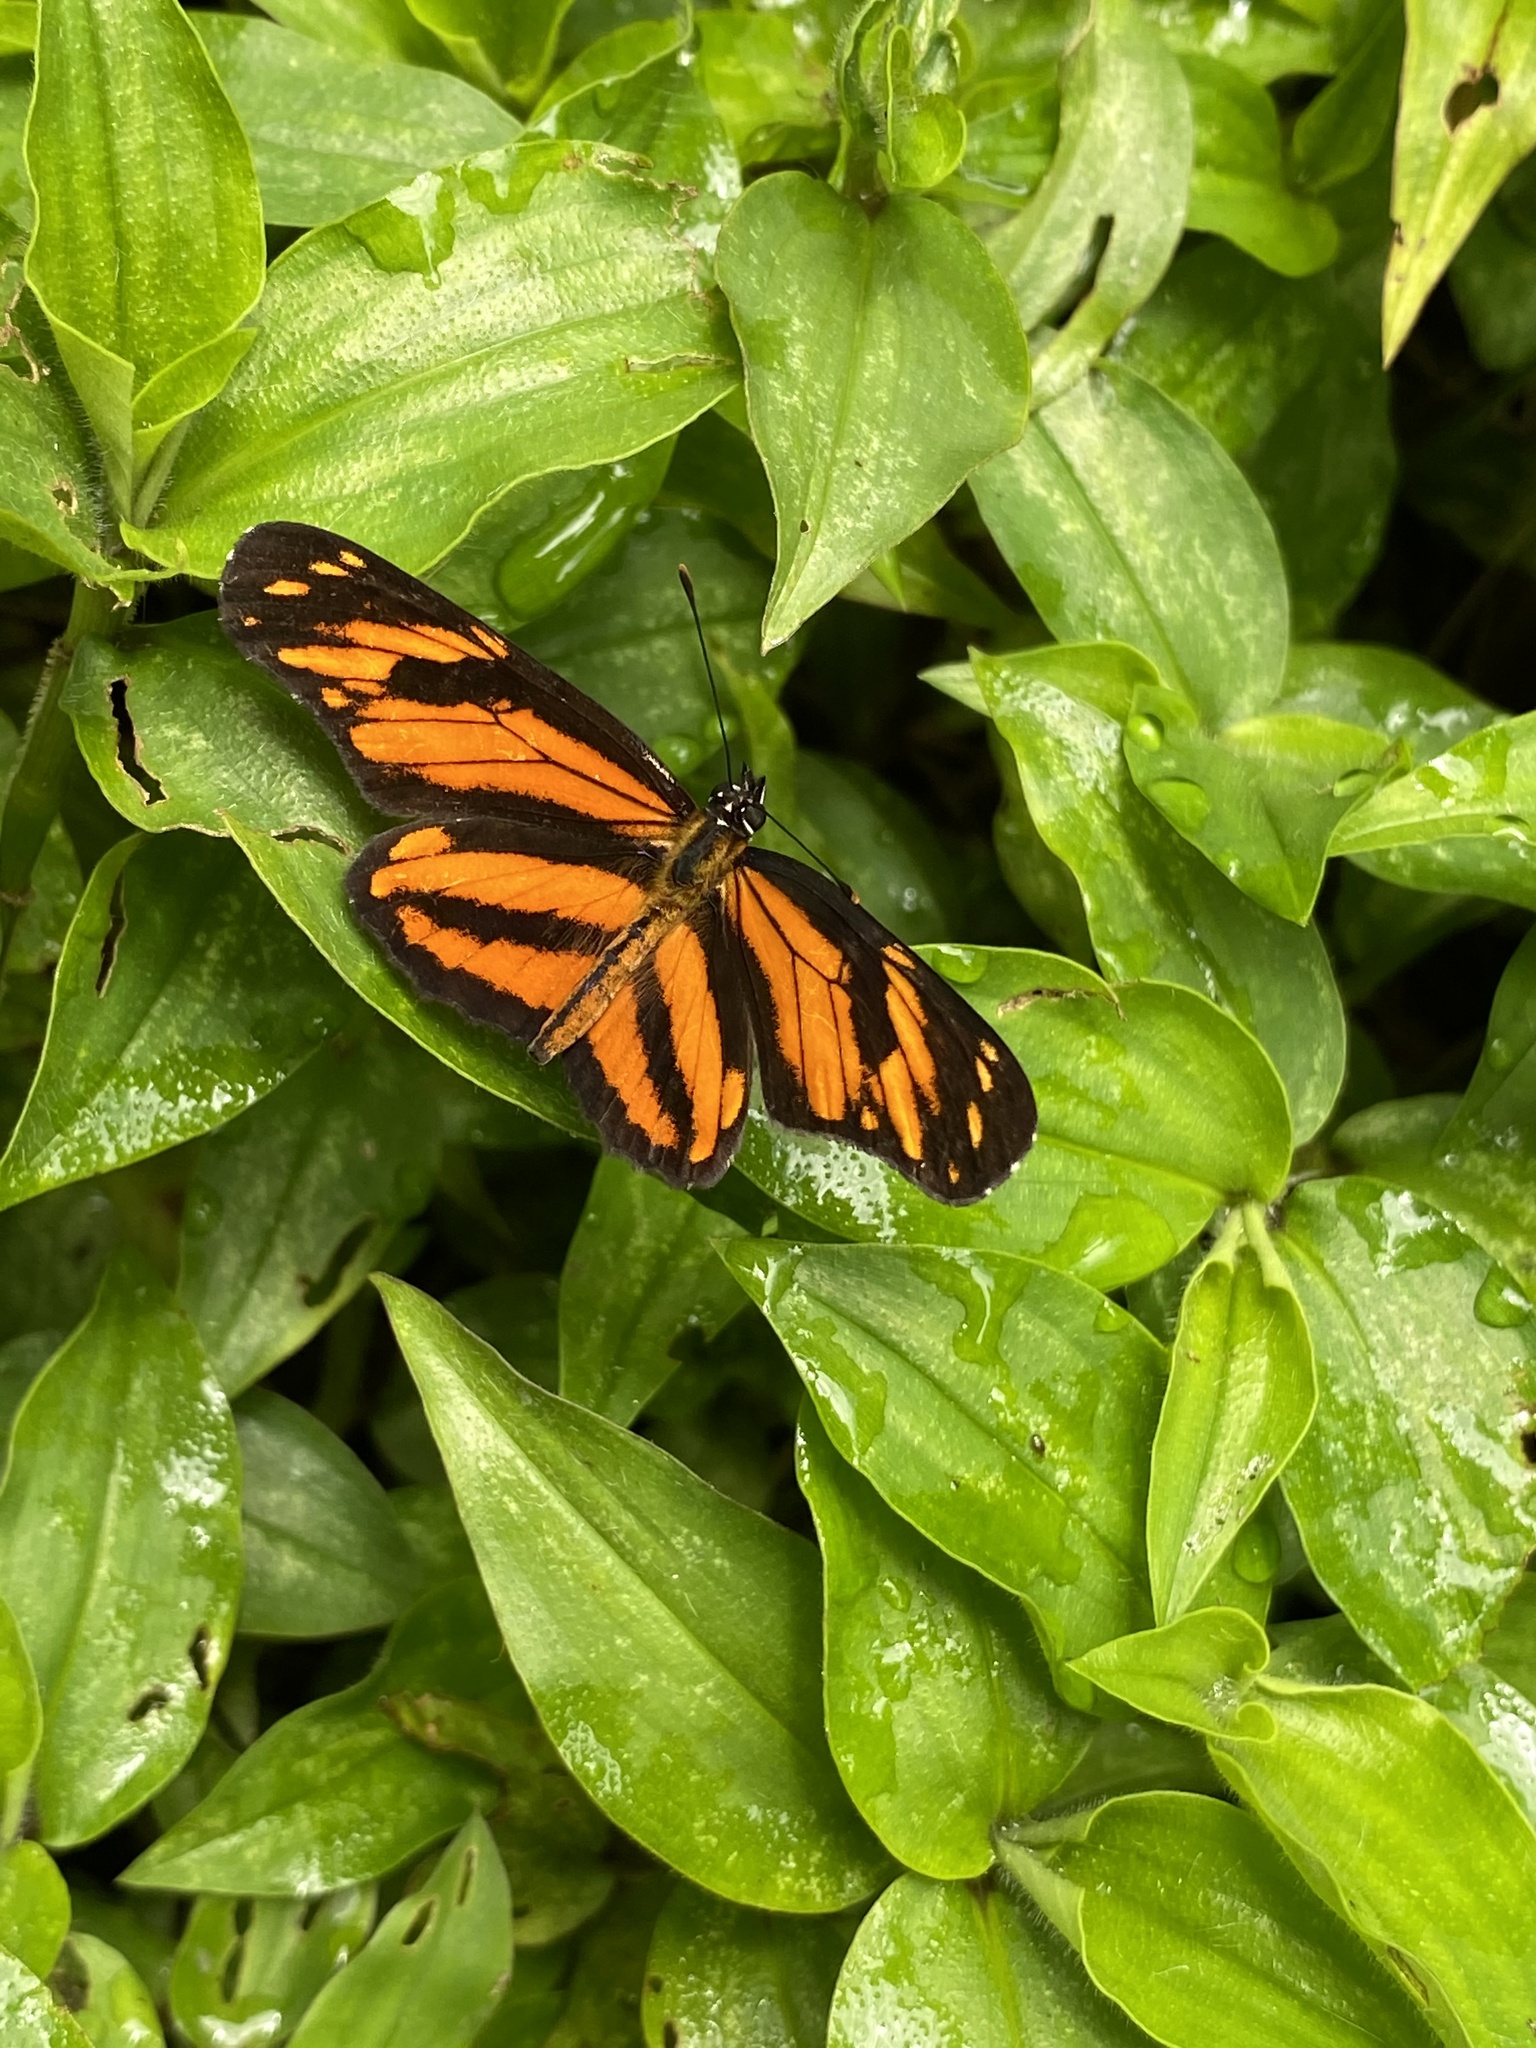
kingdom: Animalia
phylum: Arthropoda
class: Insecta
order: Lepidoptera
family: Nymphalidae
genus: Eresia
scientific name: Eresia phillyra
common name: Longwing crescent
